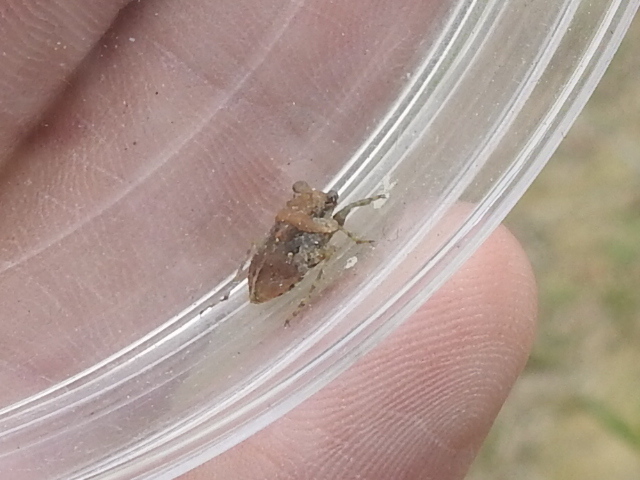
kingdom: Animalia
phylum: Arthropoda
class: Insecta
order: Hemiptera
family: Gelastocoridae
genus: Gelastocoris
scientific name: Gelastocoris oculatus
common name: Toad bug
